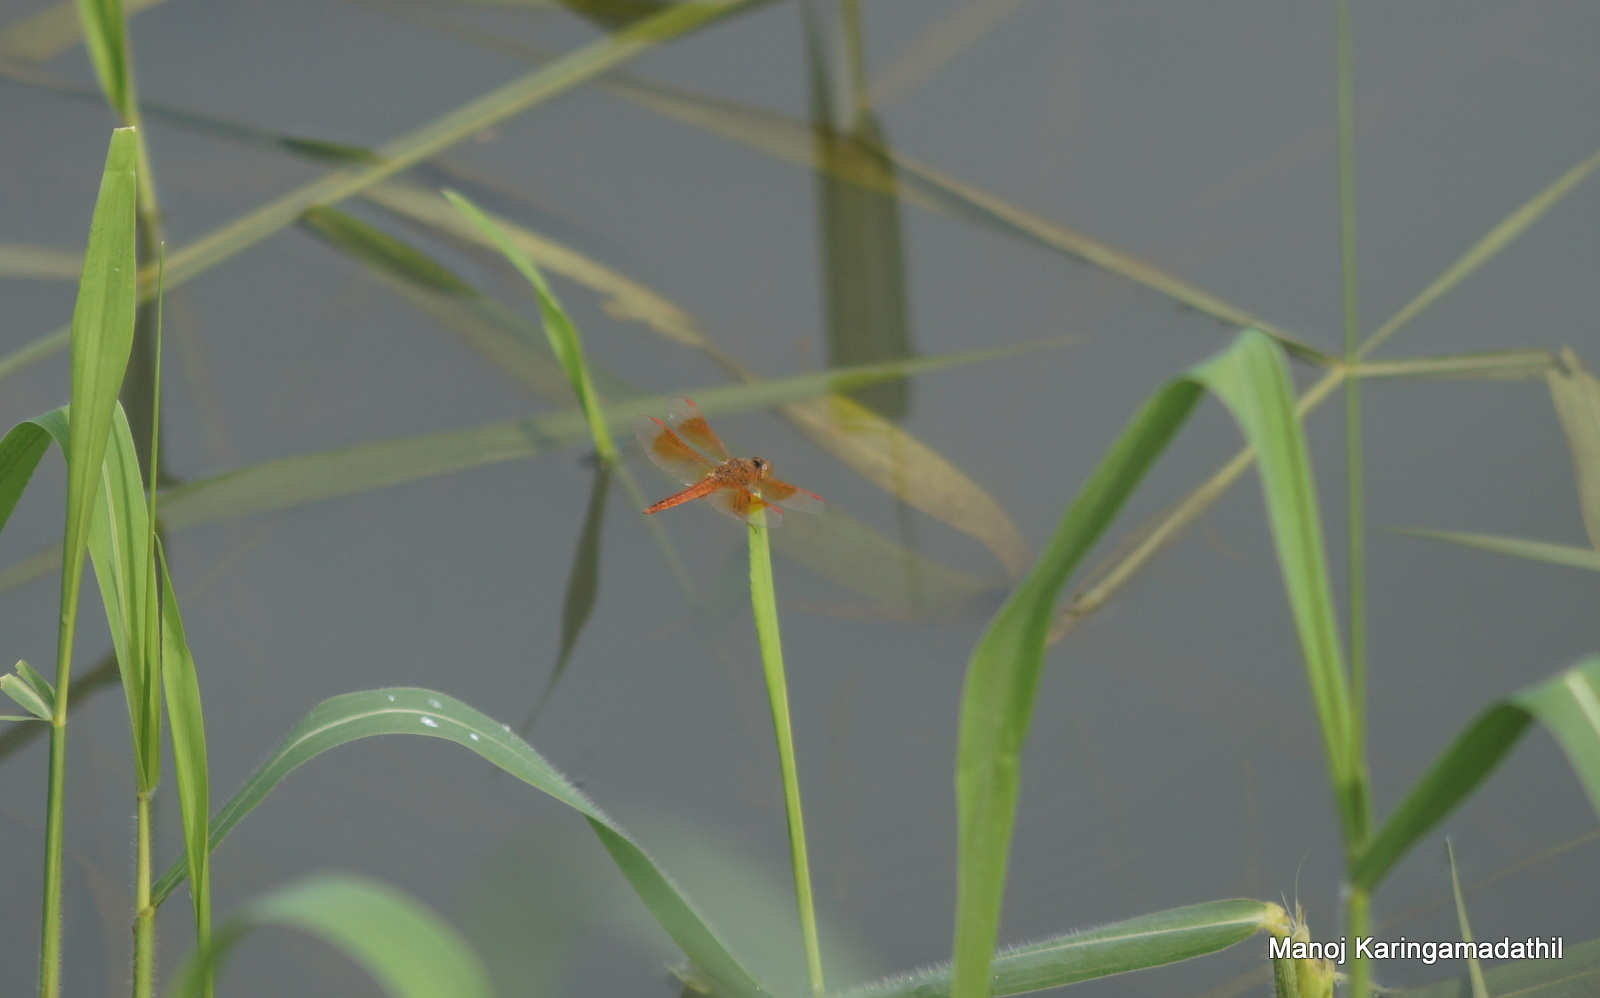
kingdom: Animalia
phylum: Arthropoda
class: Insecta
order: Odonata
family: Libellulidae
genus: Brachythemis
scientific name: Brachythemis contaminata
